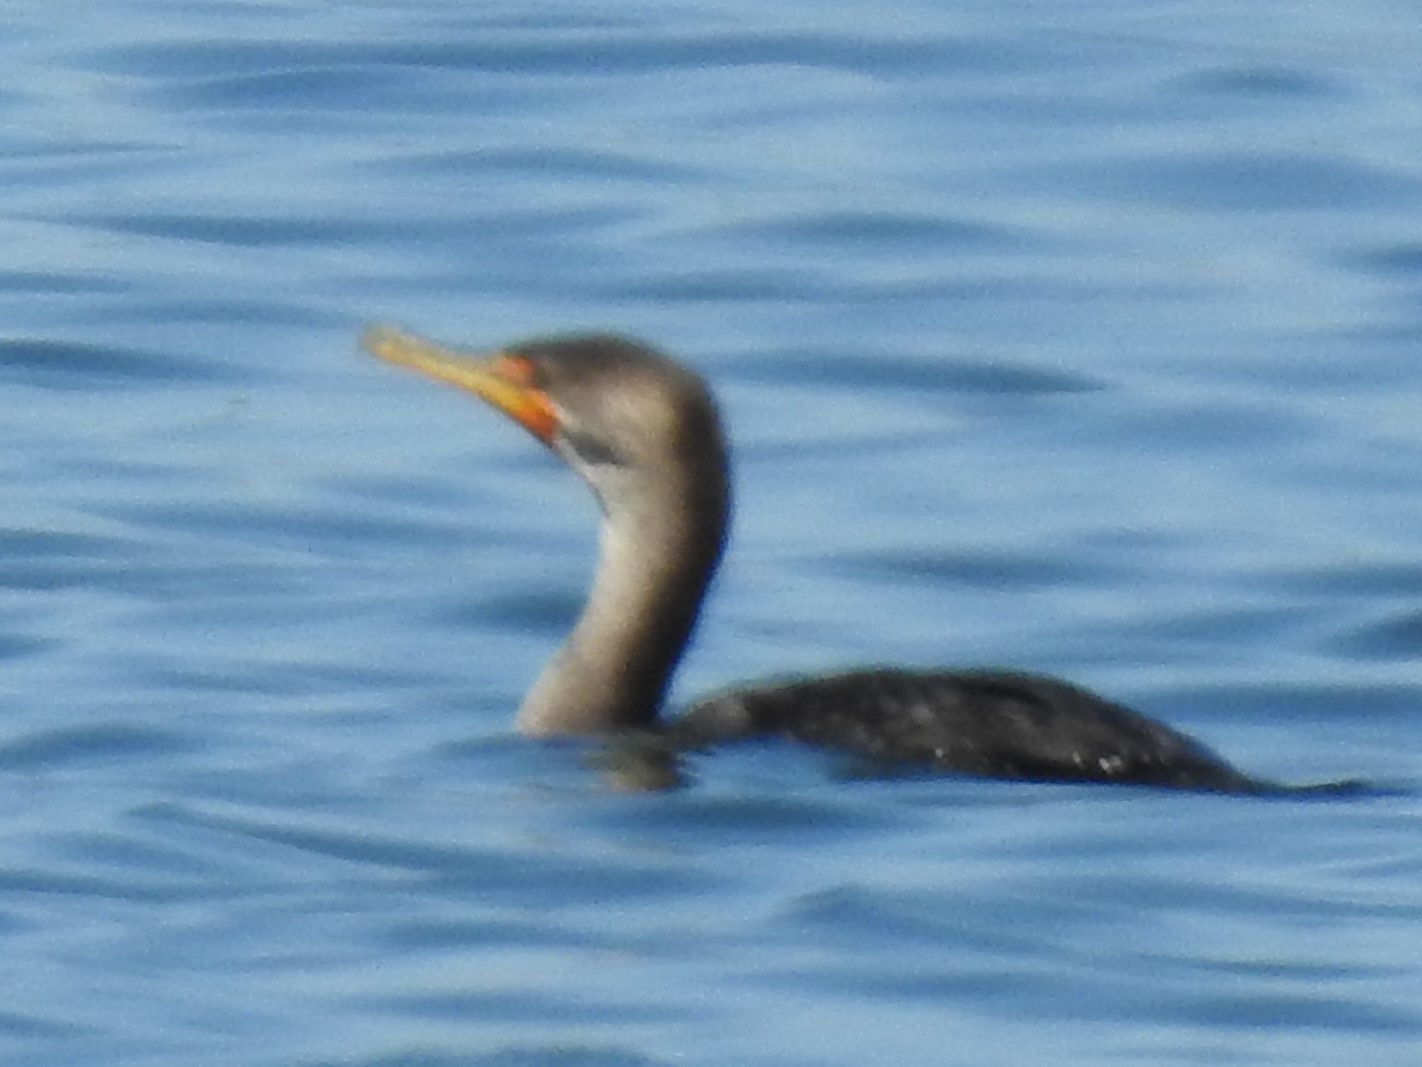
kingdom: Animalia
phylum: Chordata
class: Aves
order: Suliformes
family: Phalacrocoracidae
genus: Phalacrocorax
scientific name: Phalacrocorax auritus
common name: Double-crested cormorant
